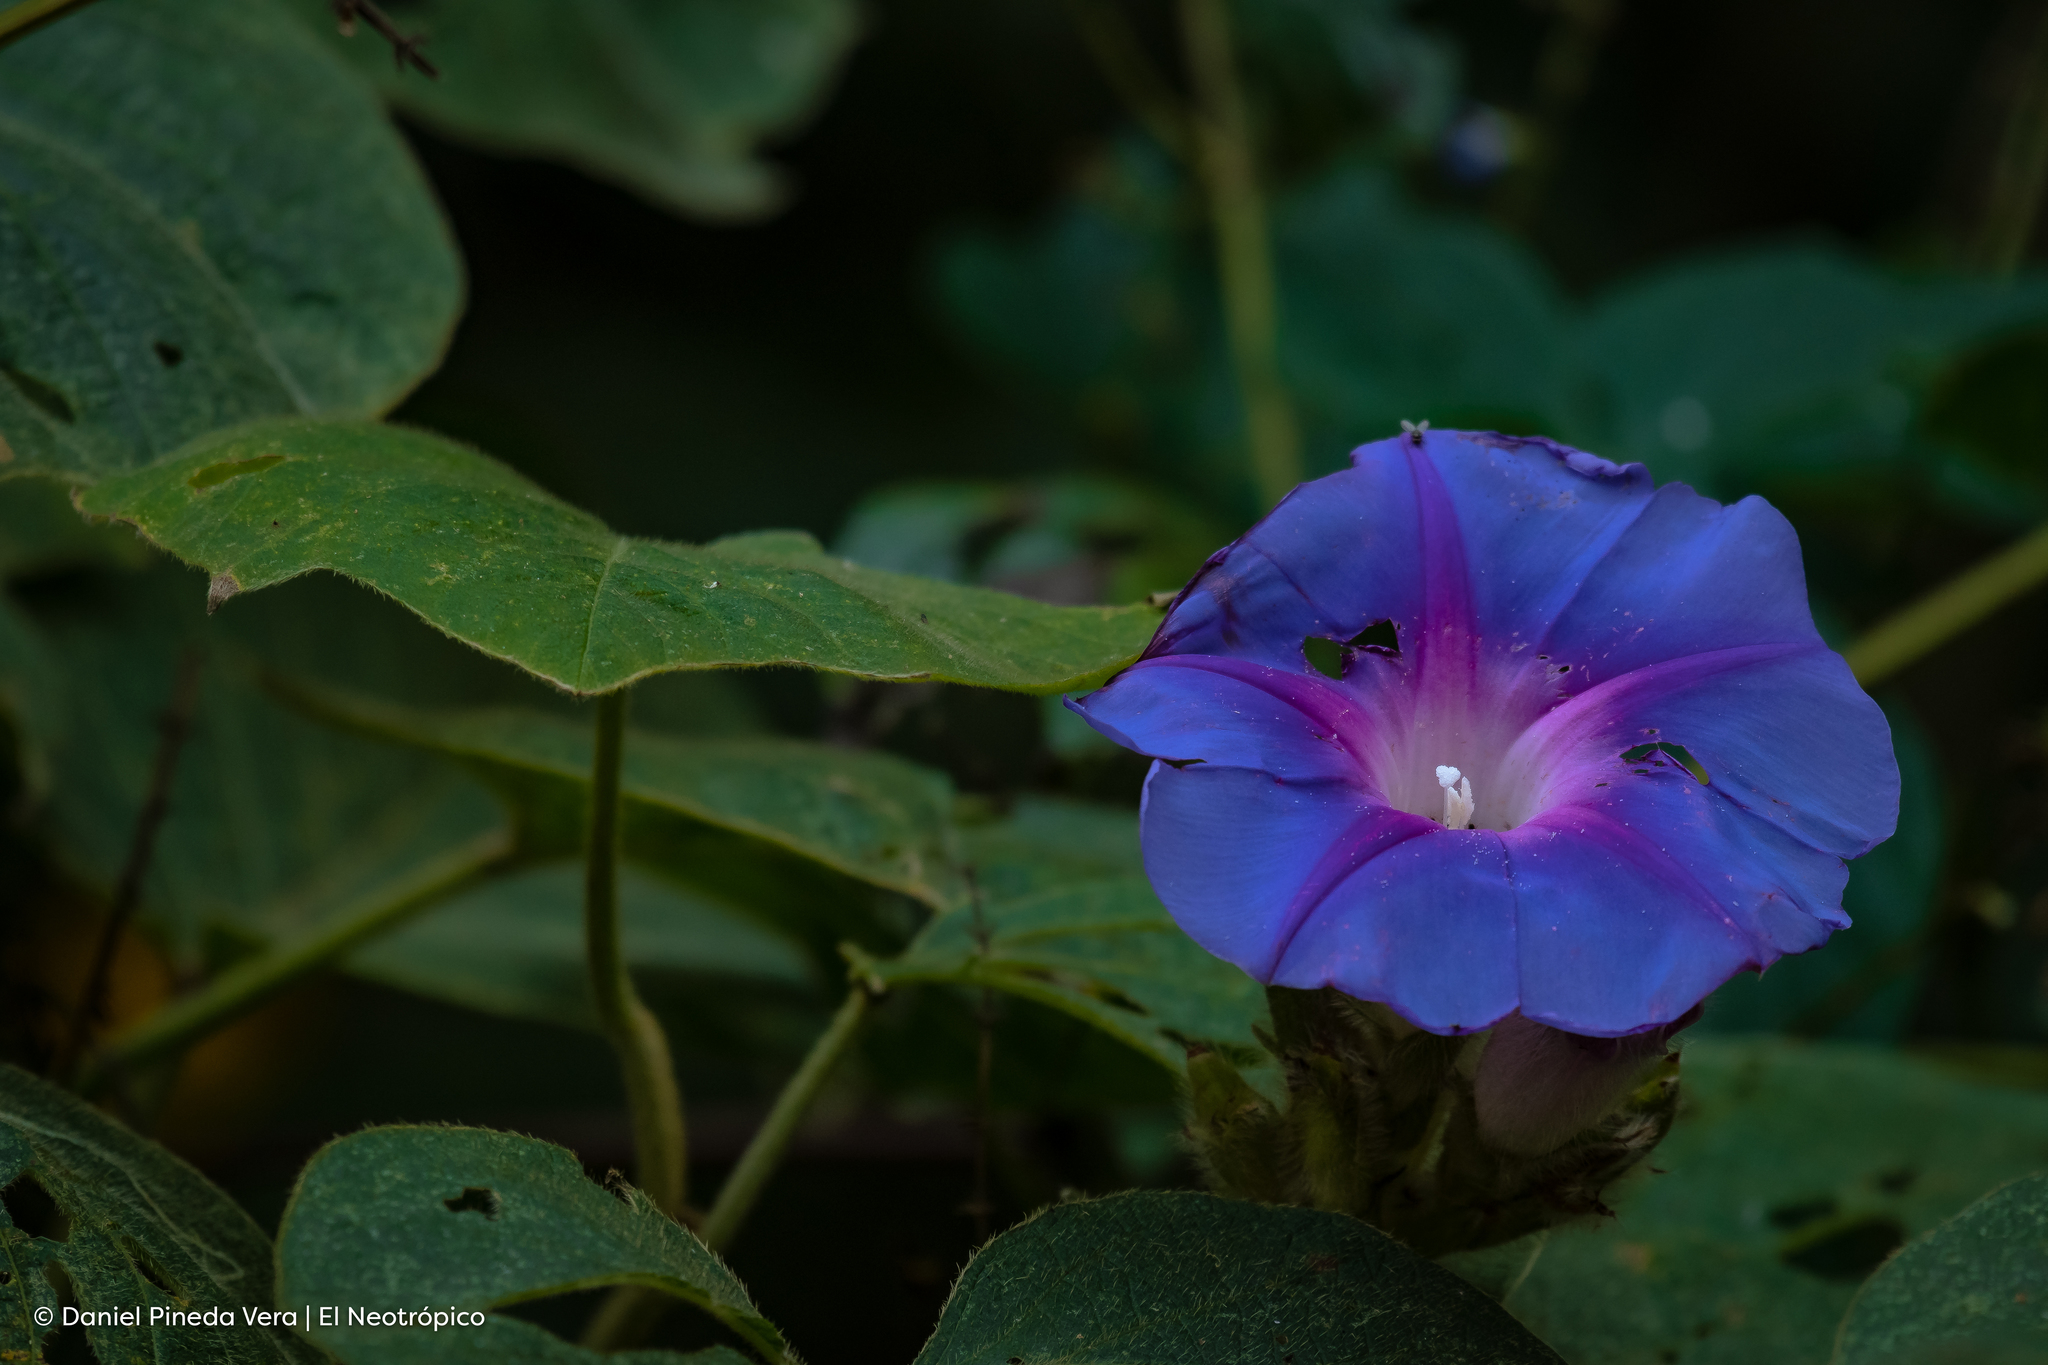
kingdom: Plantae
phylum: Tracheophyta
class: Magnoliopsida
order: Solanales
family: Convolvulaceae
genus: Ipomoea
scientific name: Ipomoea villifera
